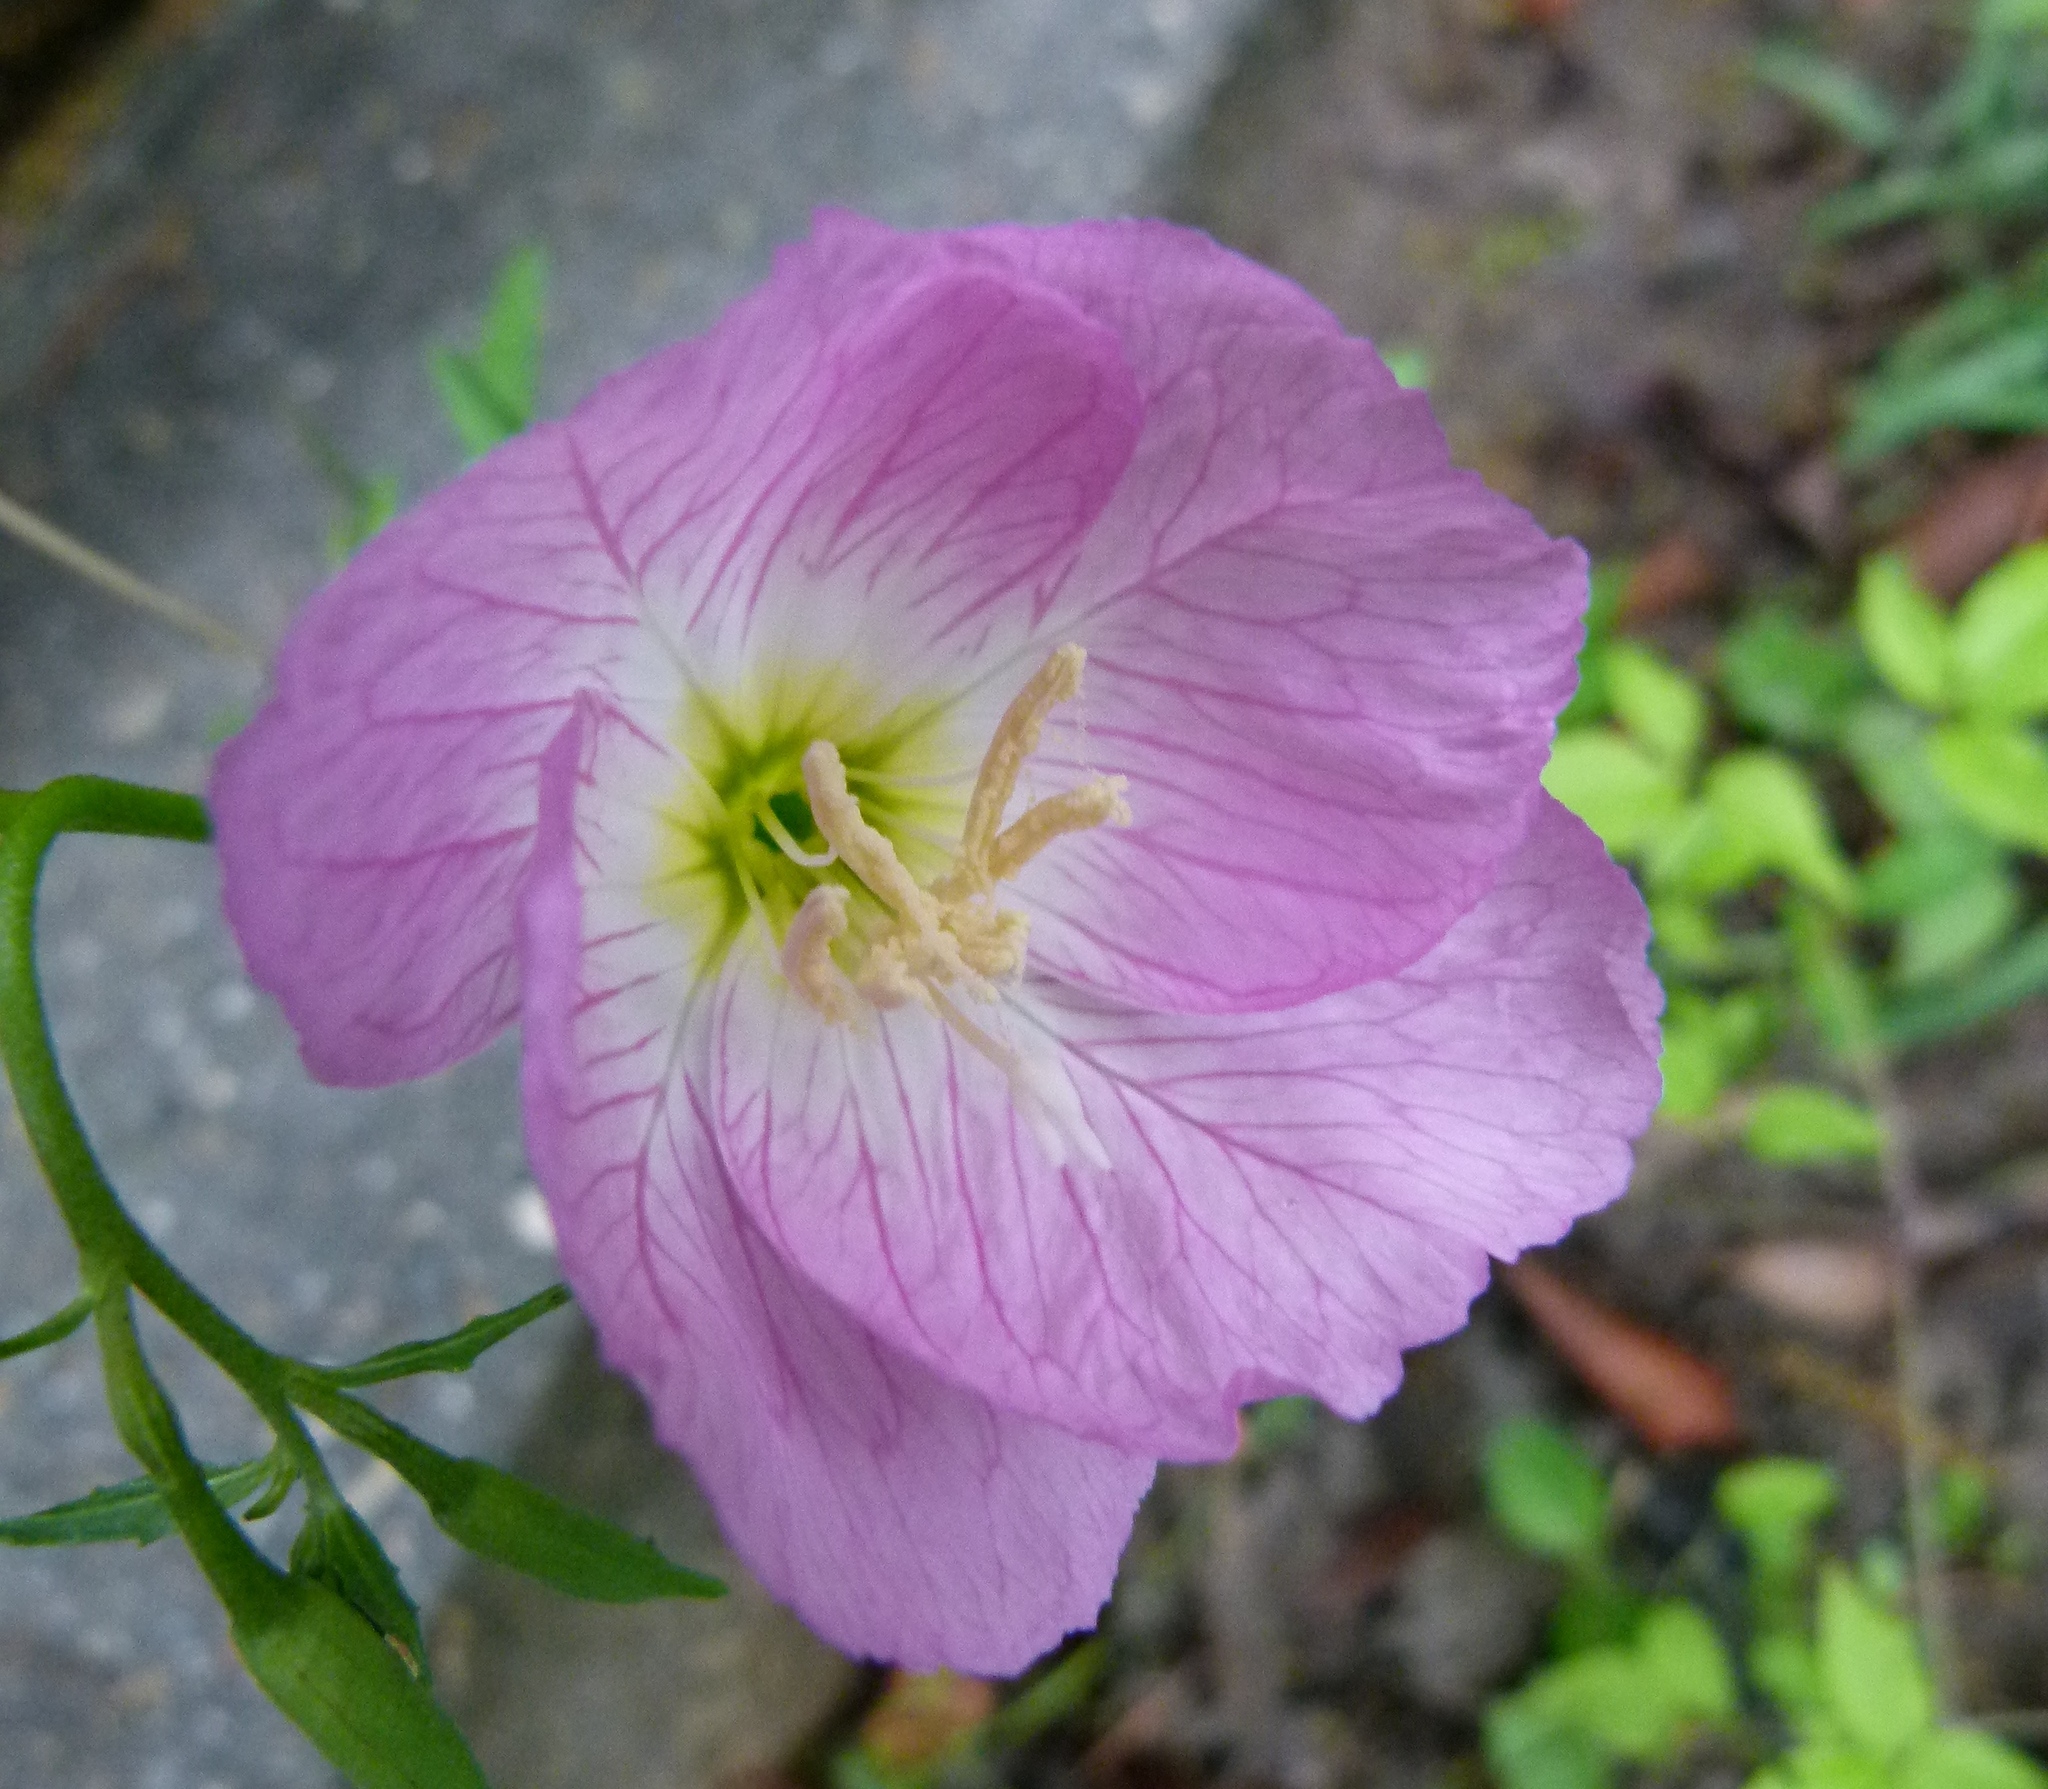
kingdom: Plantae
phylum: Tracheophyta
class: Magnoliopsida
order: Myrtales
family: Onagraceae
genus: Oenothera
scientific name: Oenothera speciosa
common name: White evening-primrose
